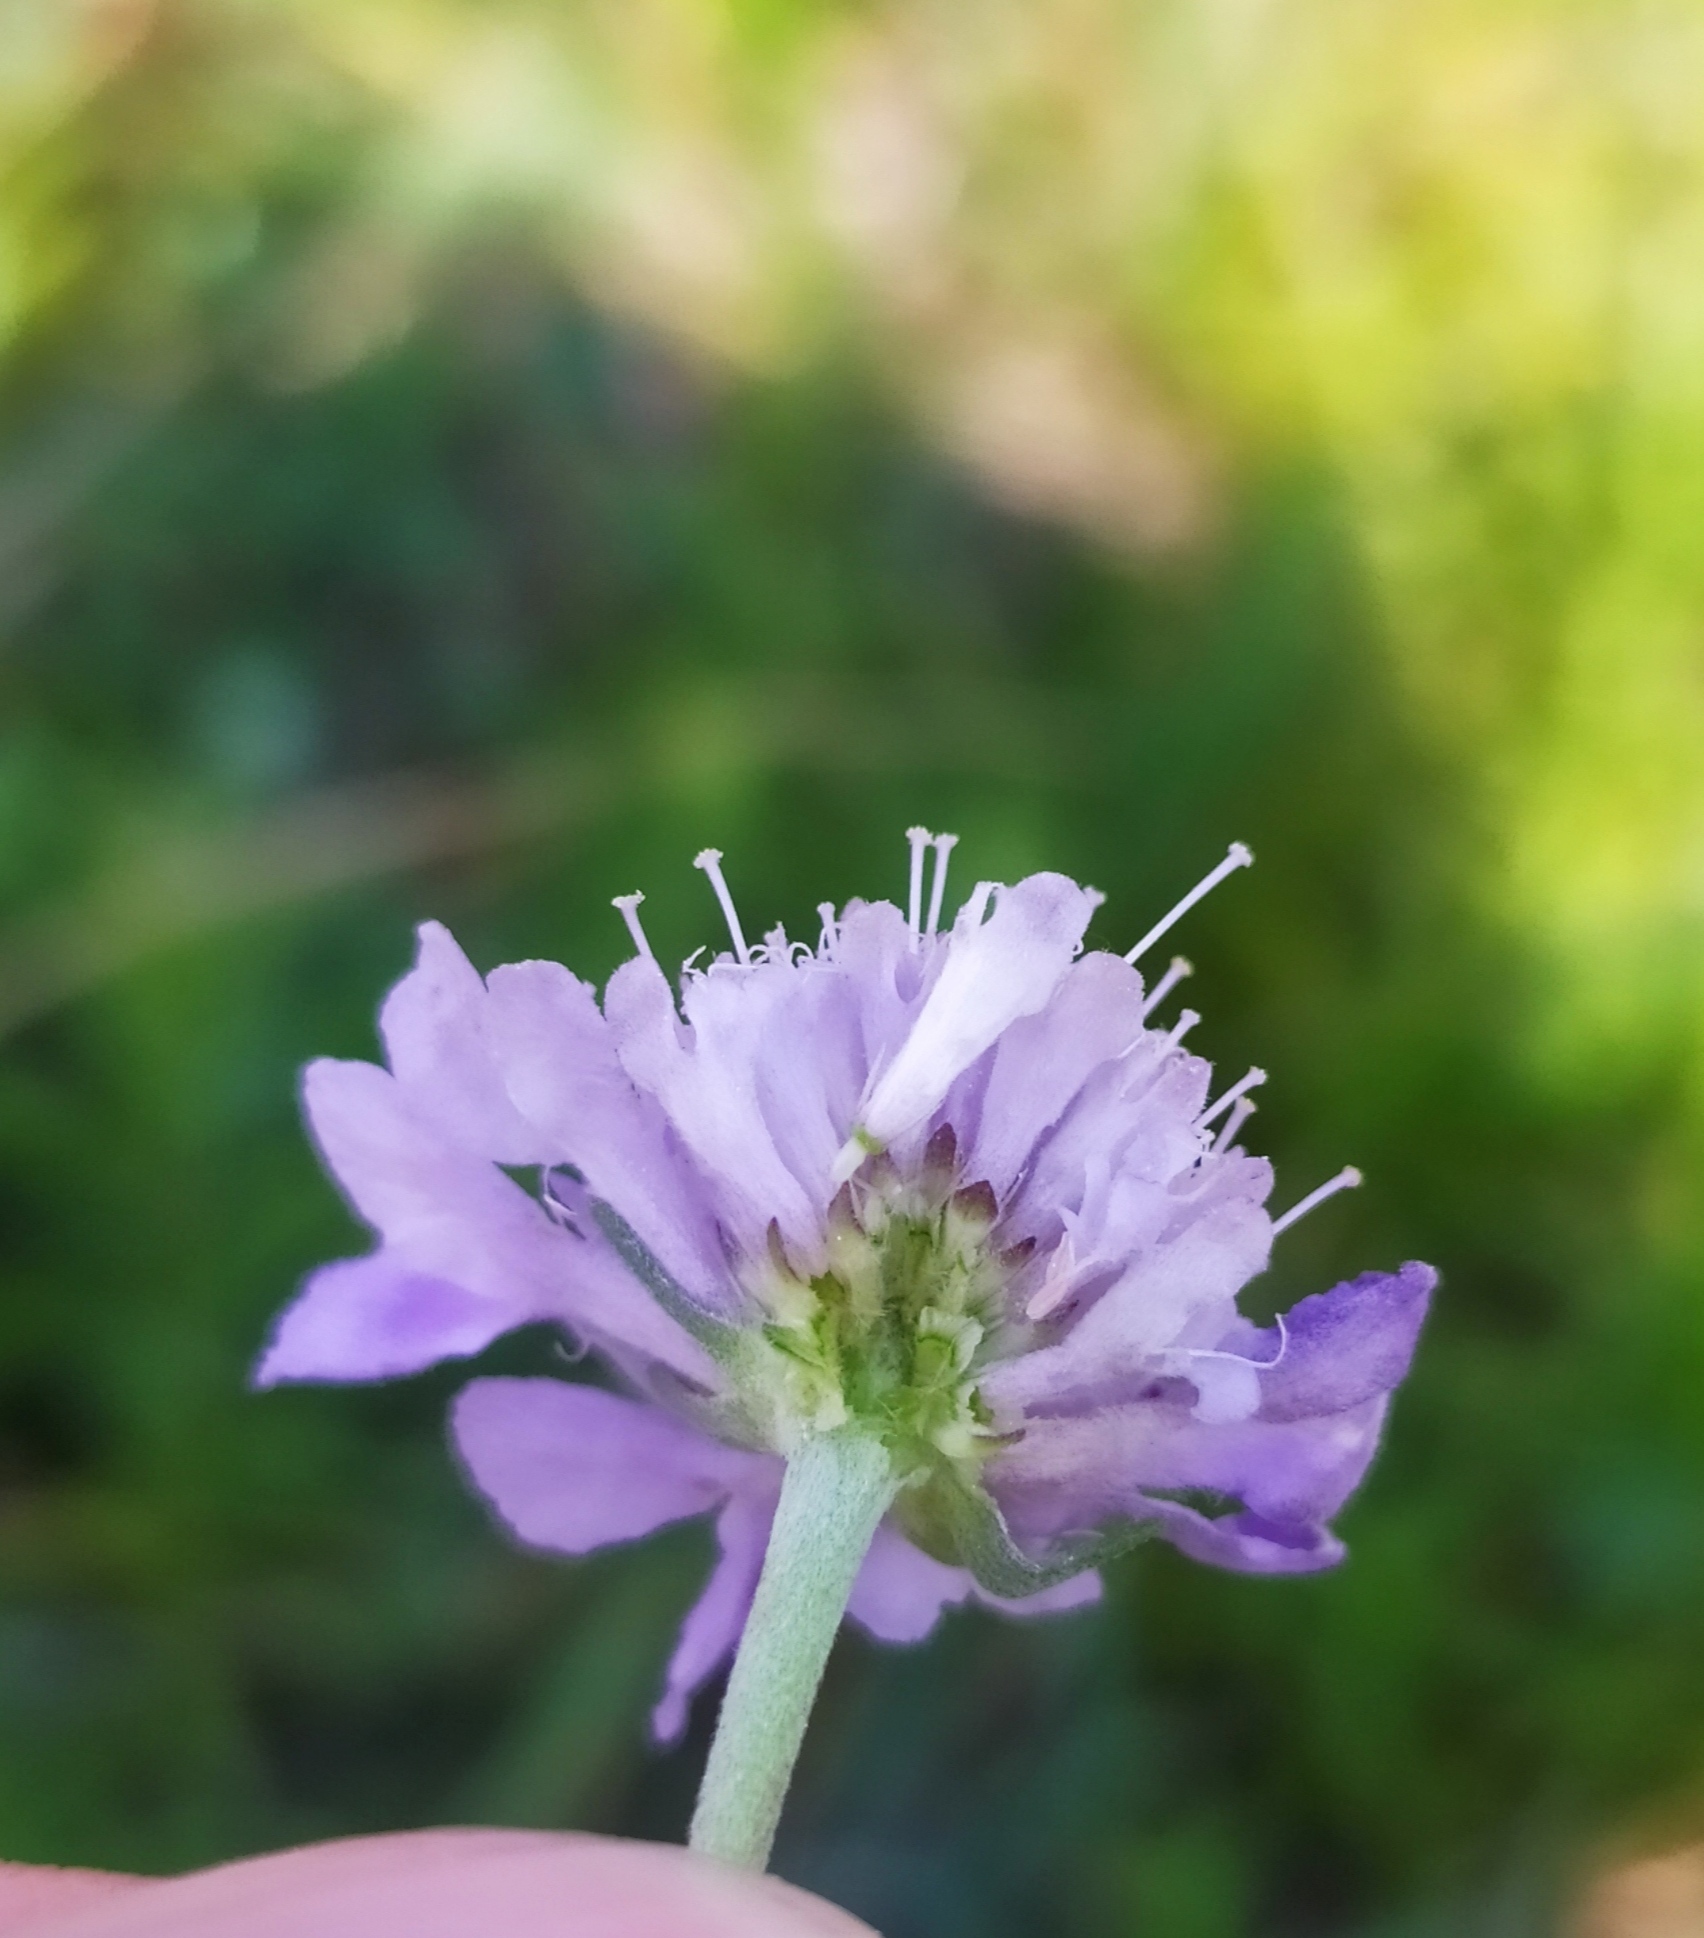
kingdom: Plantae
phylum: Tracheophyta
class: Magnoliopsida
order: Dipsacales
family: Caprifoliaceae
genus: Scabiosa
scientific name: Scabiosa canescens
